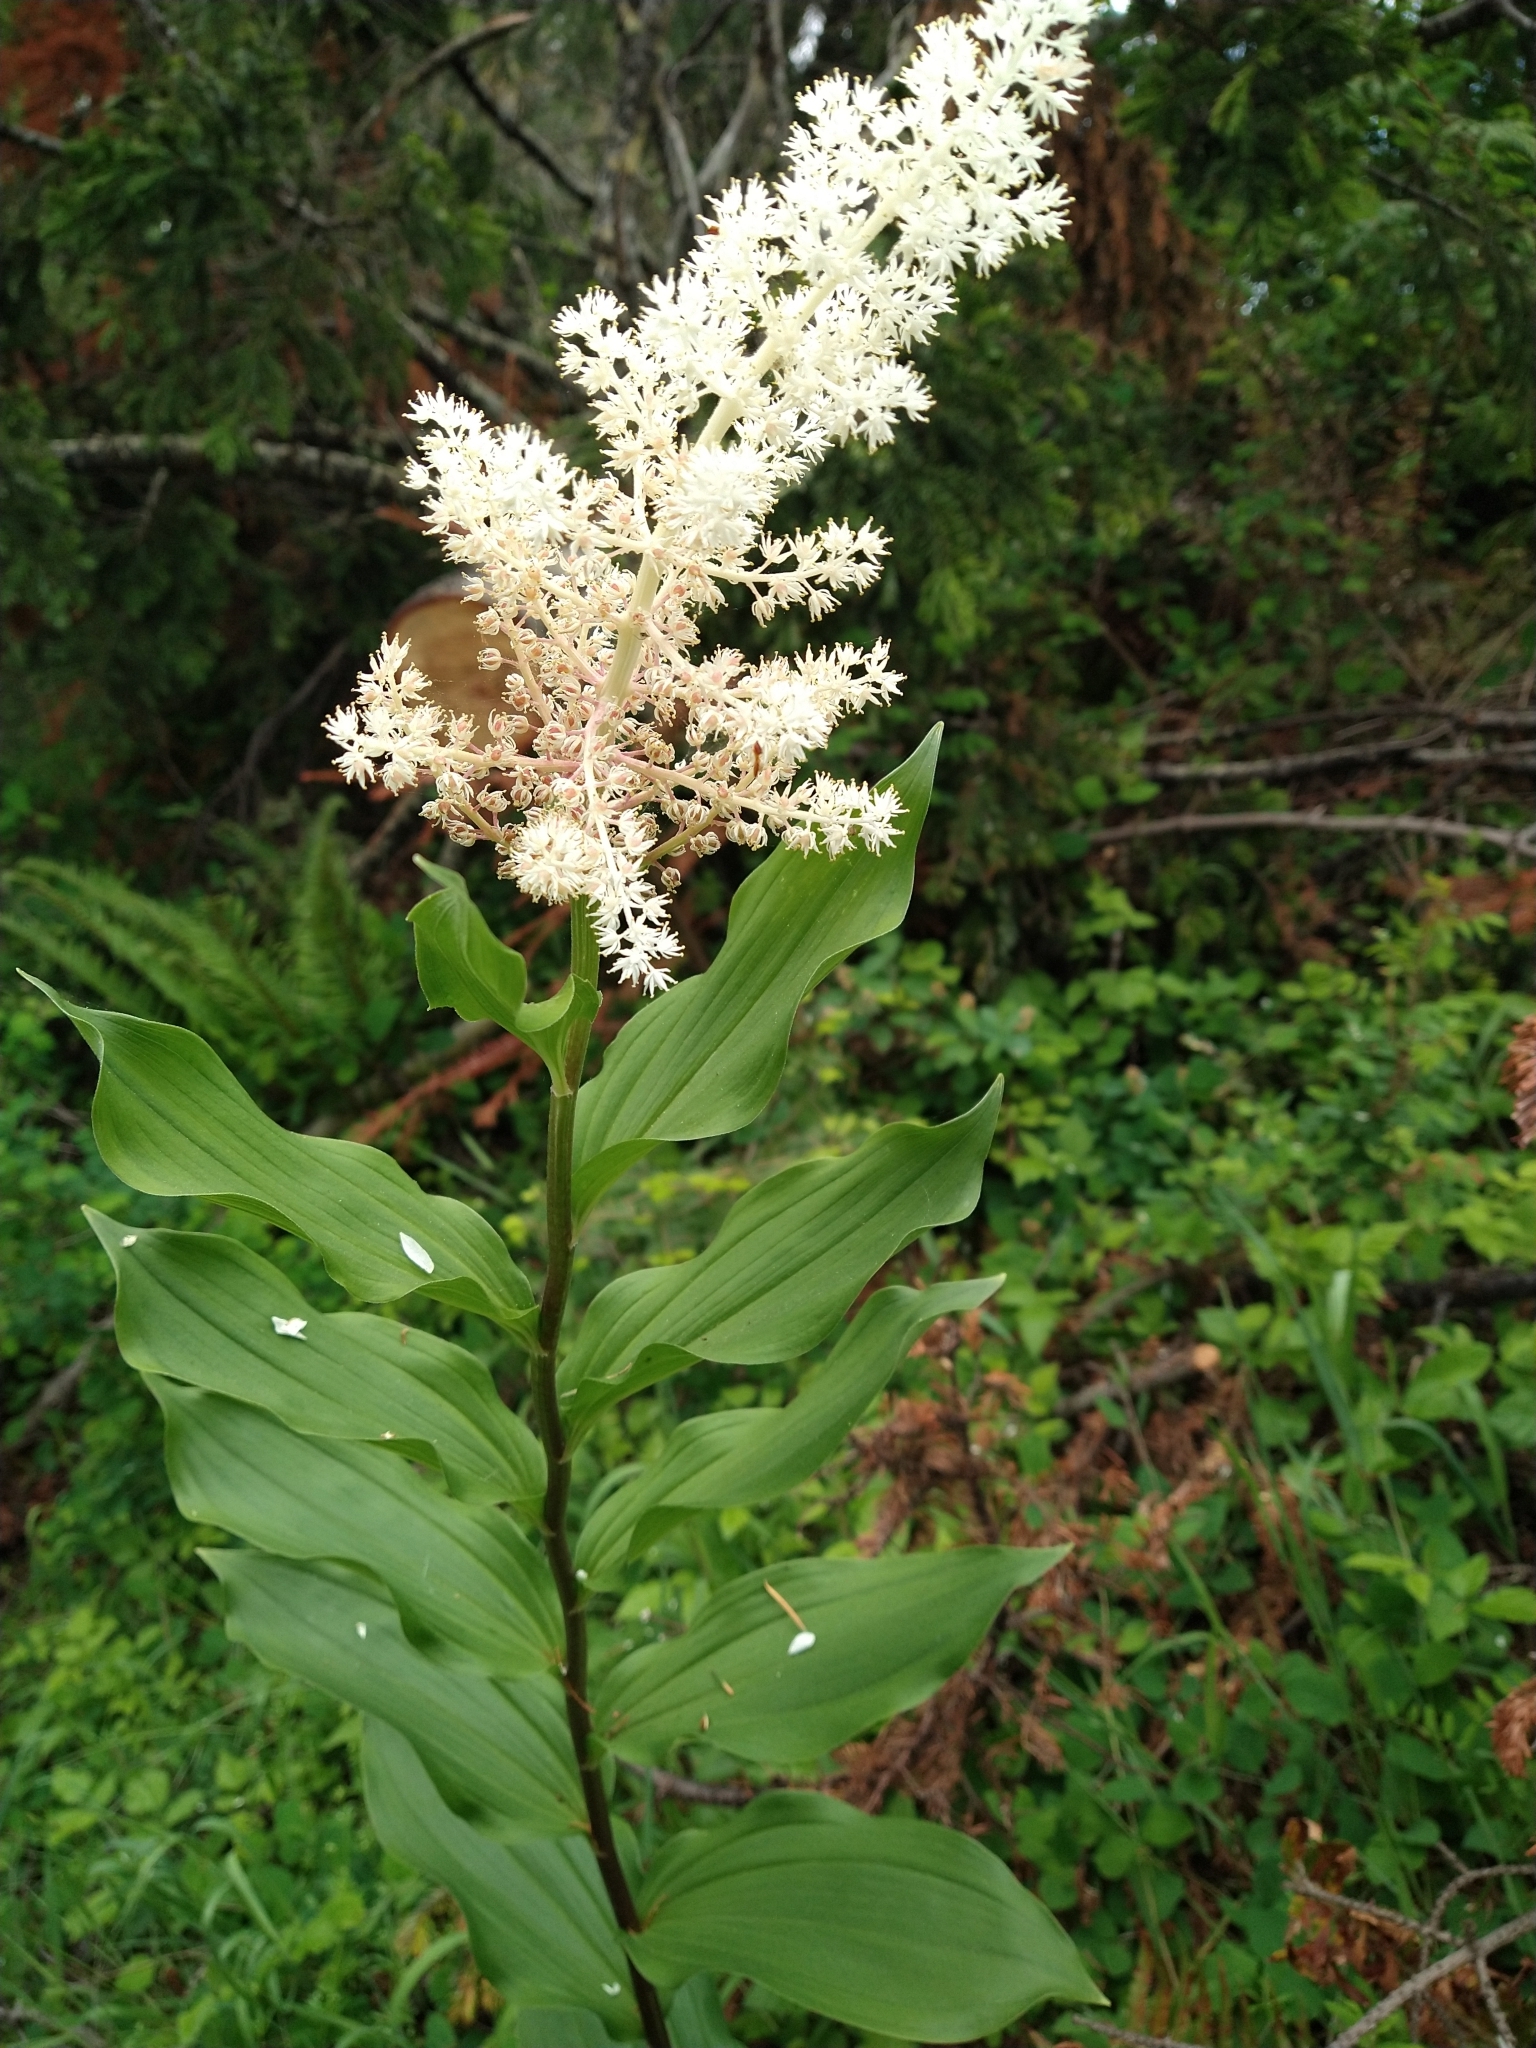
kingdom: Plantae
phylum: Tracheophyta
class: Liliopsida
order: Asparagales
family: Asparagaceae
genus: Maianthemum
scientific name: Maianthemum racemosum
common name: False spikenard
